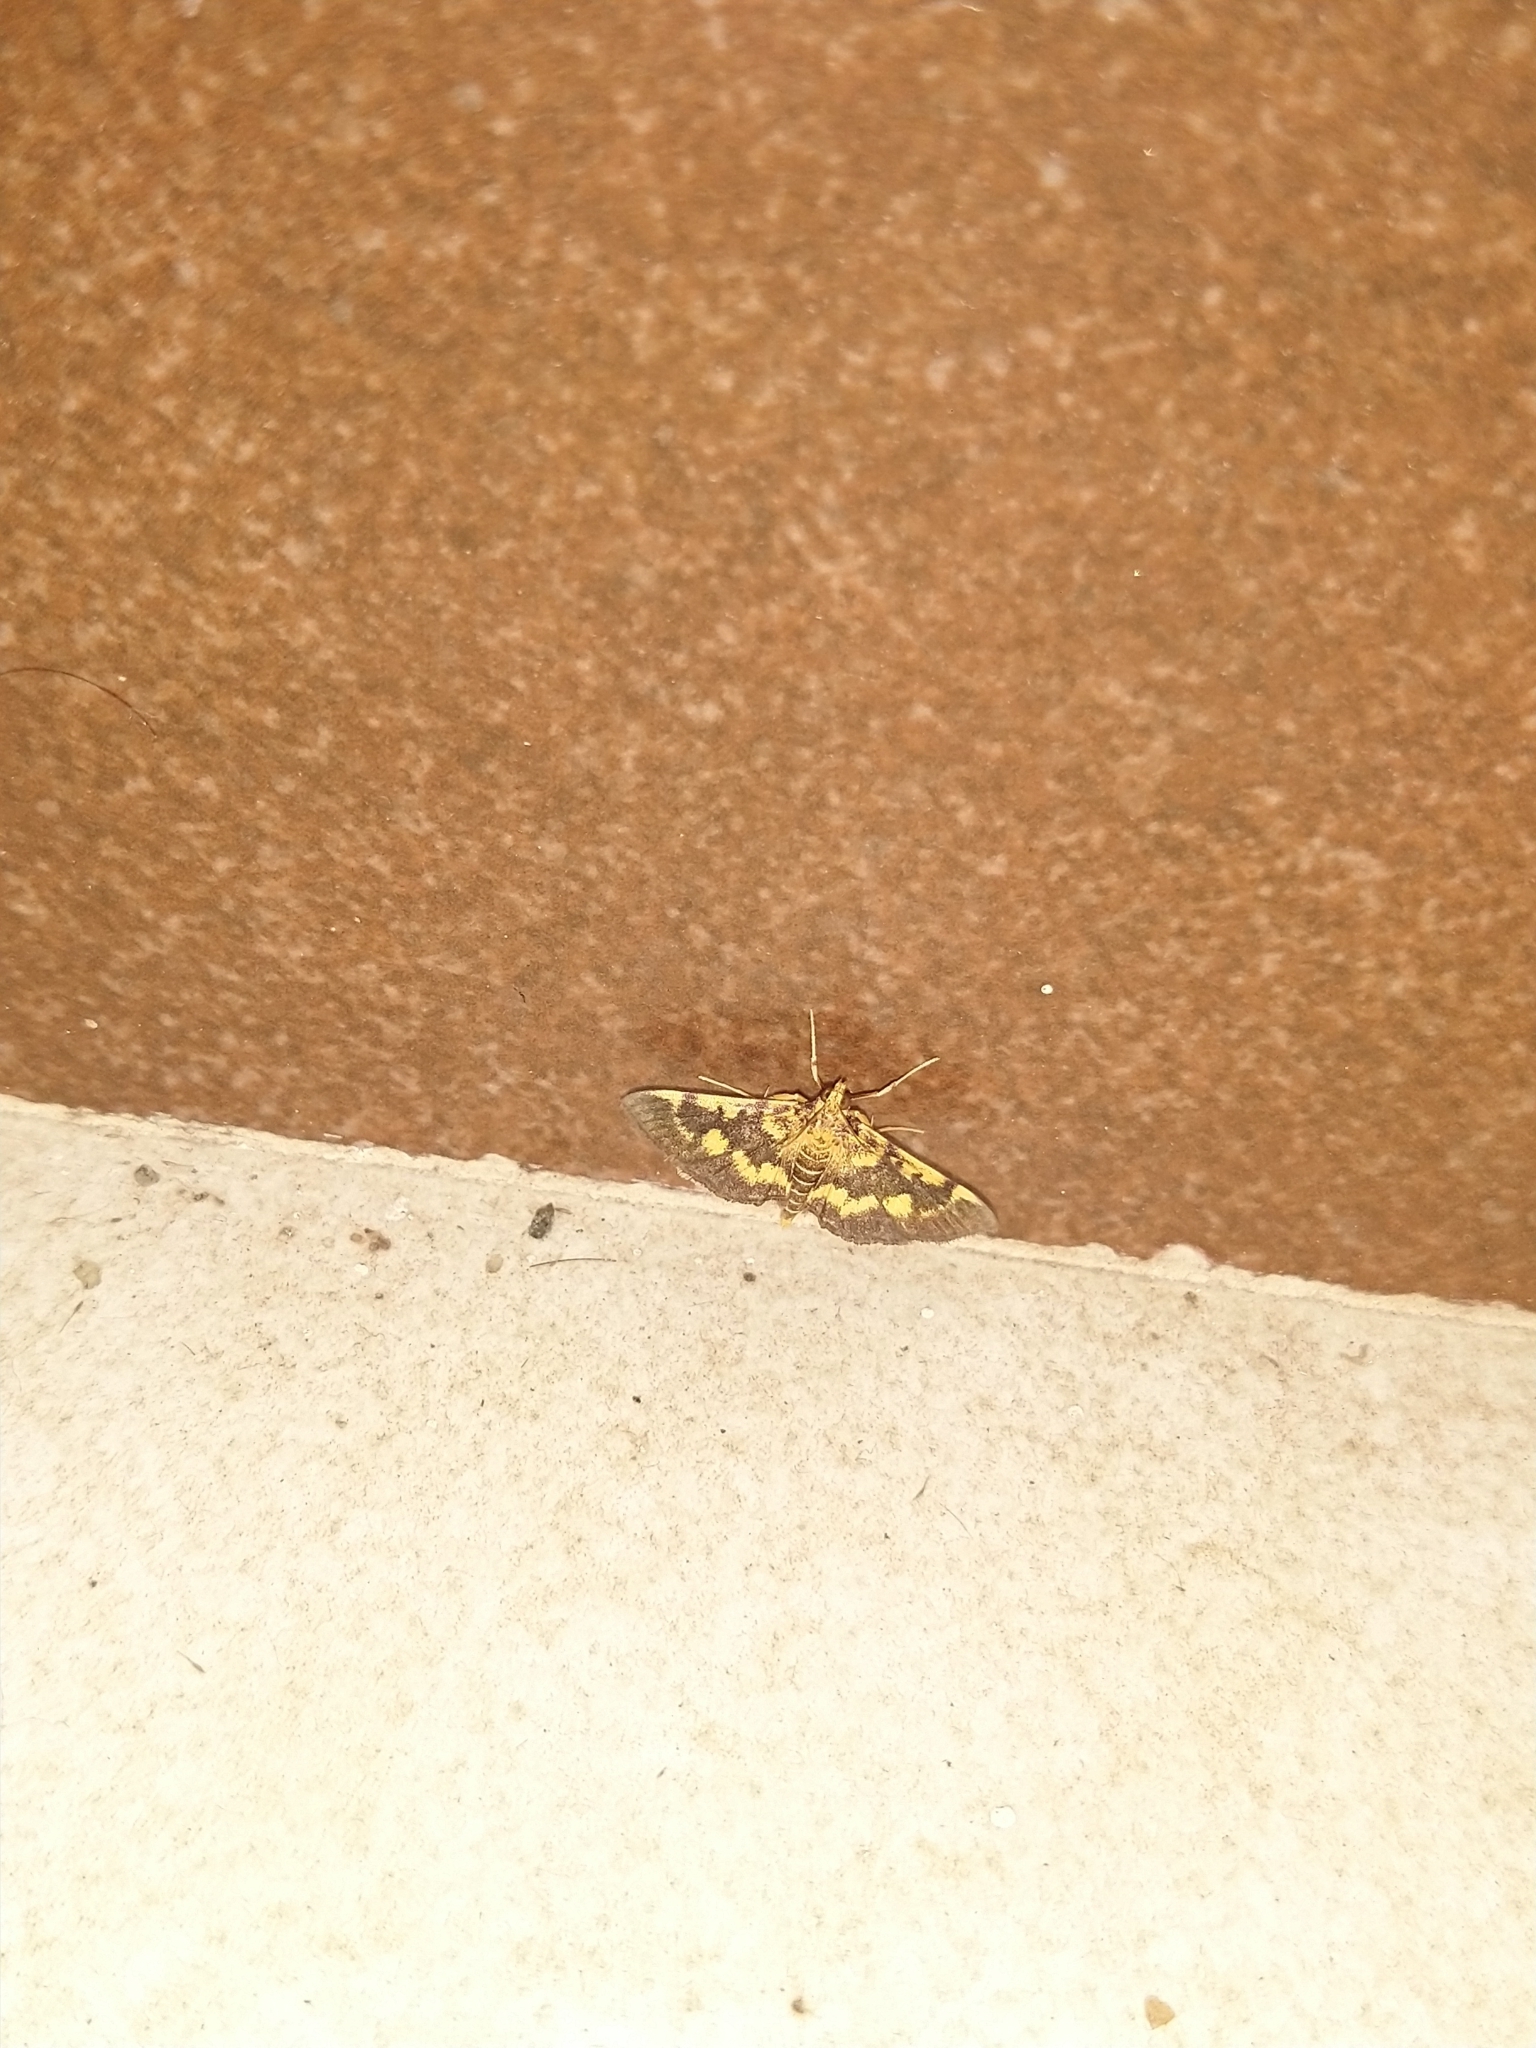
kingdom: Animalia
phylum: Arthropoda
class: Insecta
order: Lepidoptera
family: Crambidae
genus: Omiodes
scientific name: Omiodes diemenalis
